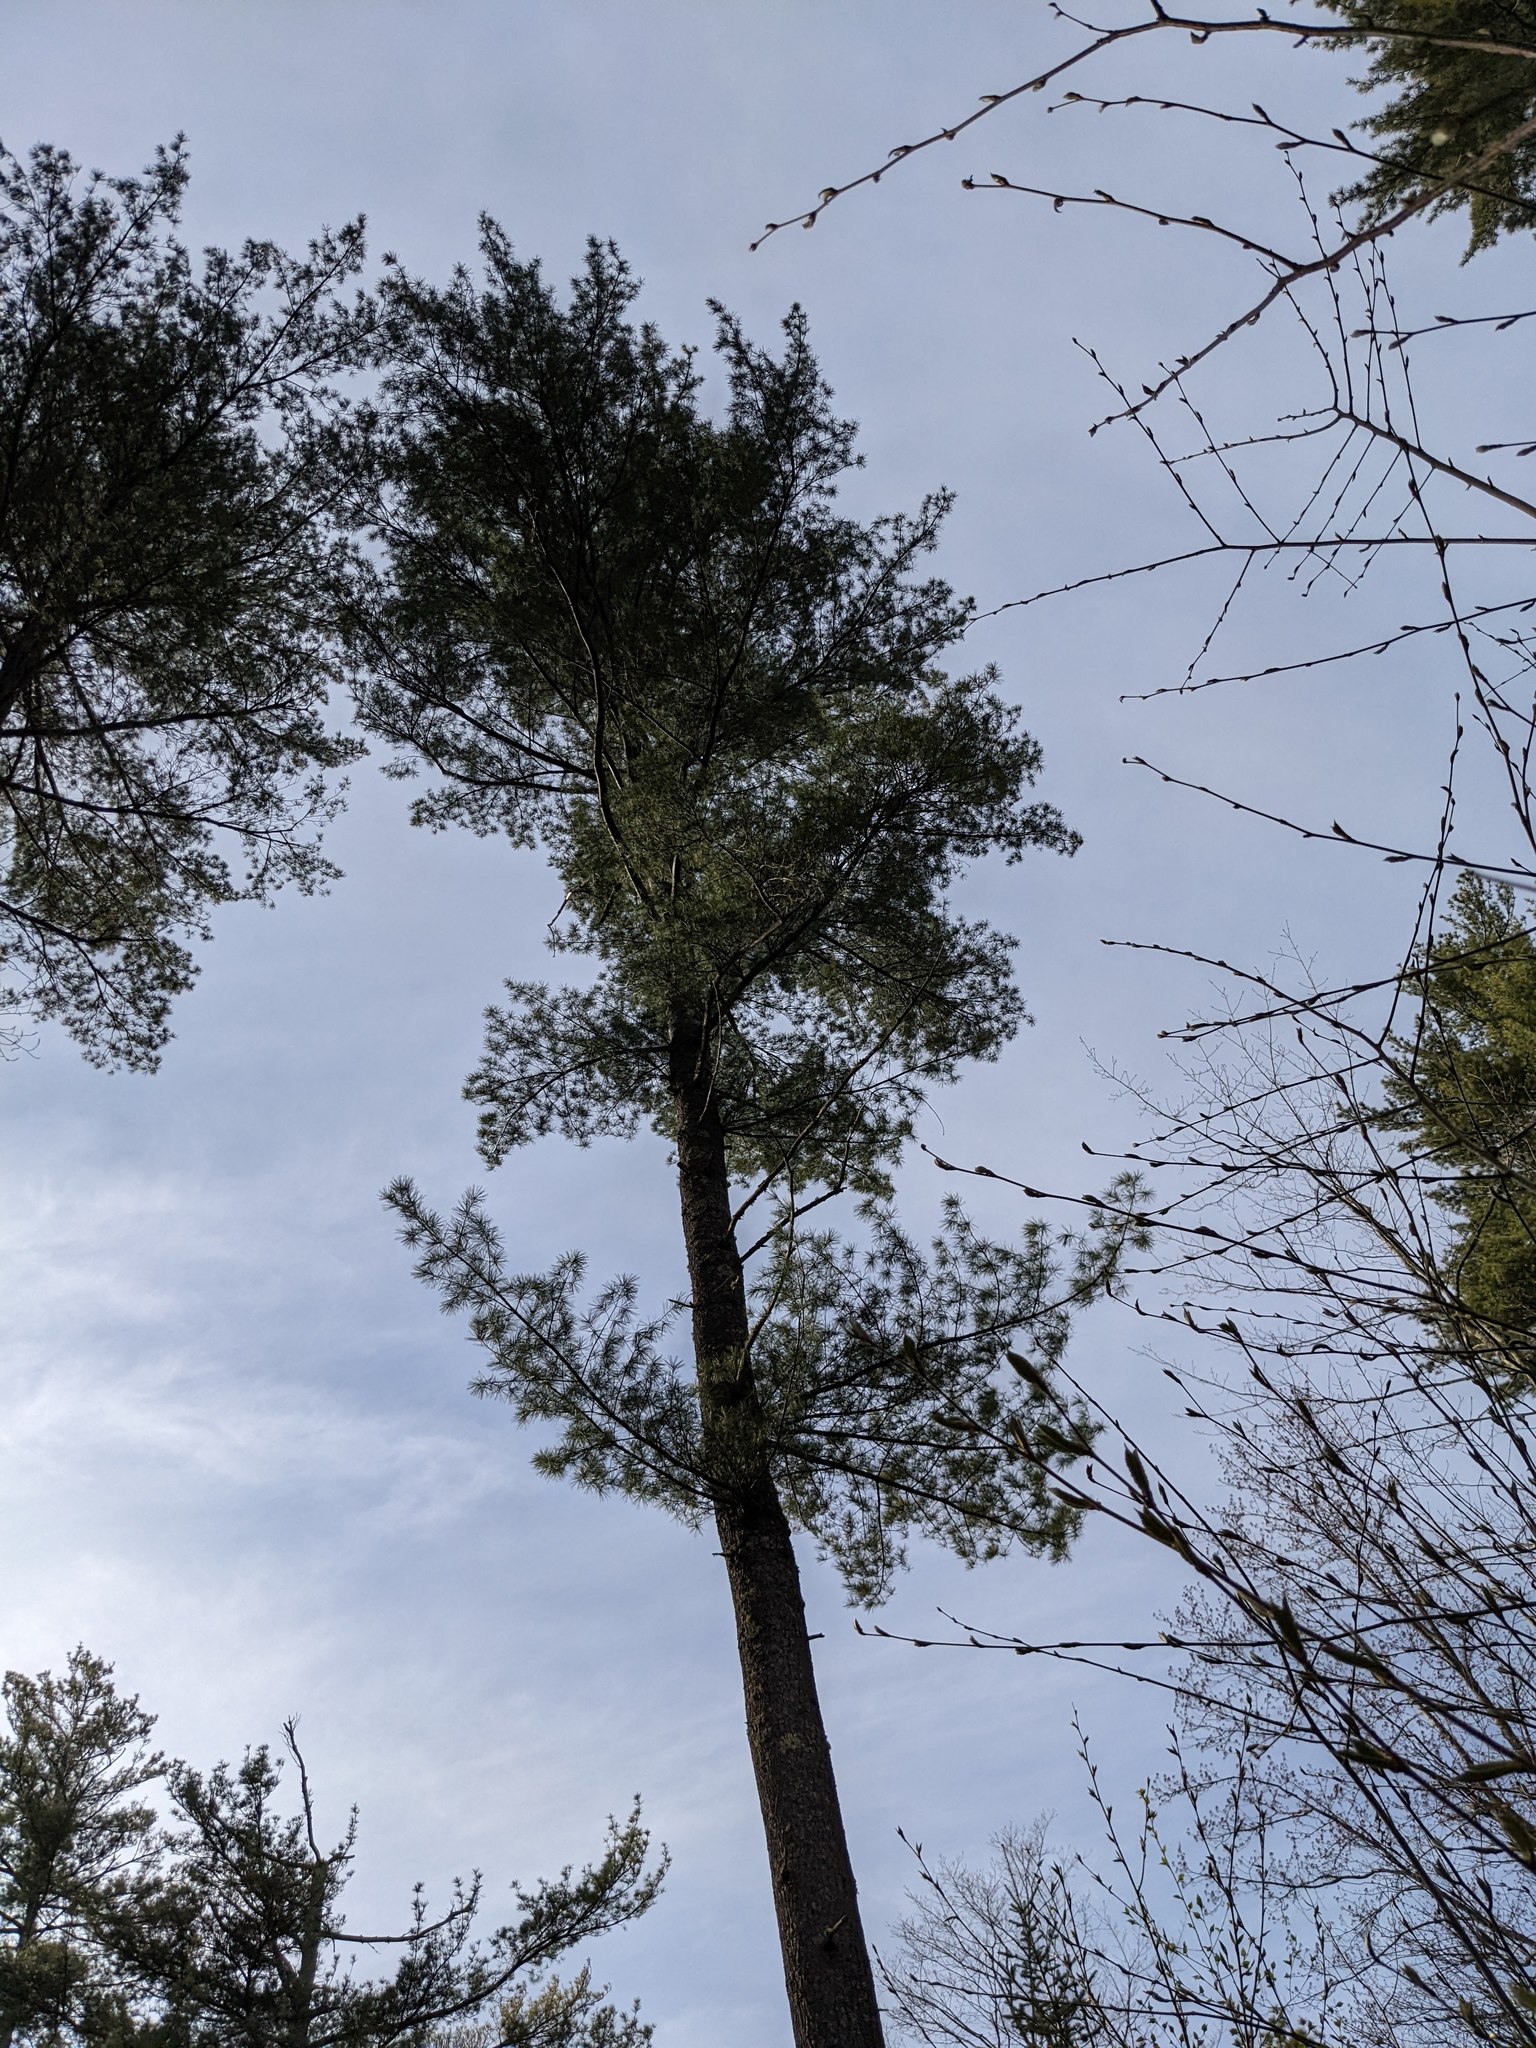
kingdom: Plantae
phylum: Tracheophyta
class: Pinopsida
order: Pinales
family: Pinaceae
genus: Pinus
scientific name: Pinus strobus
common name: Weymouth pine
